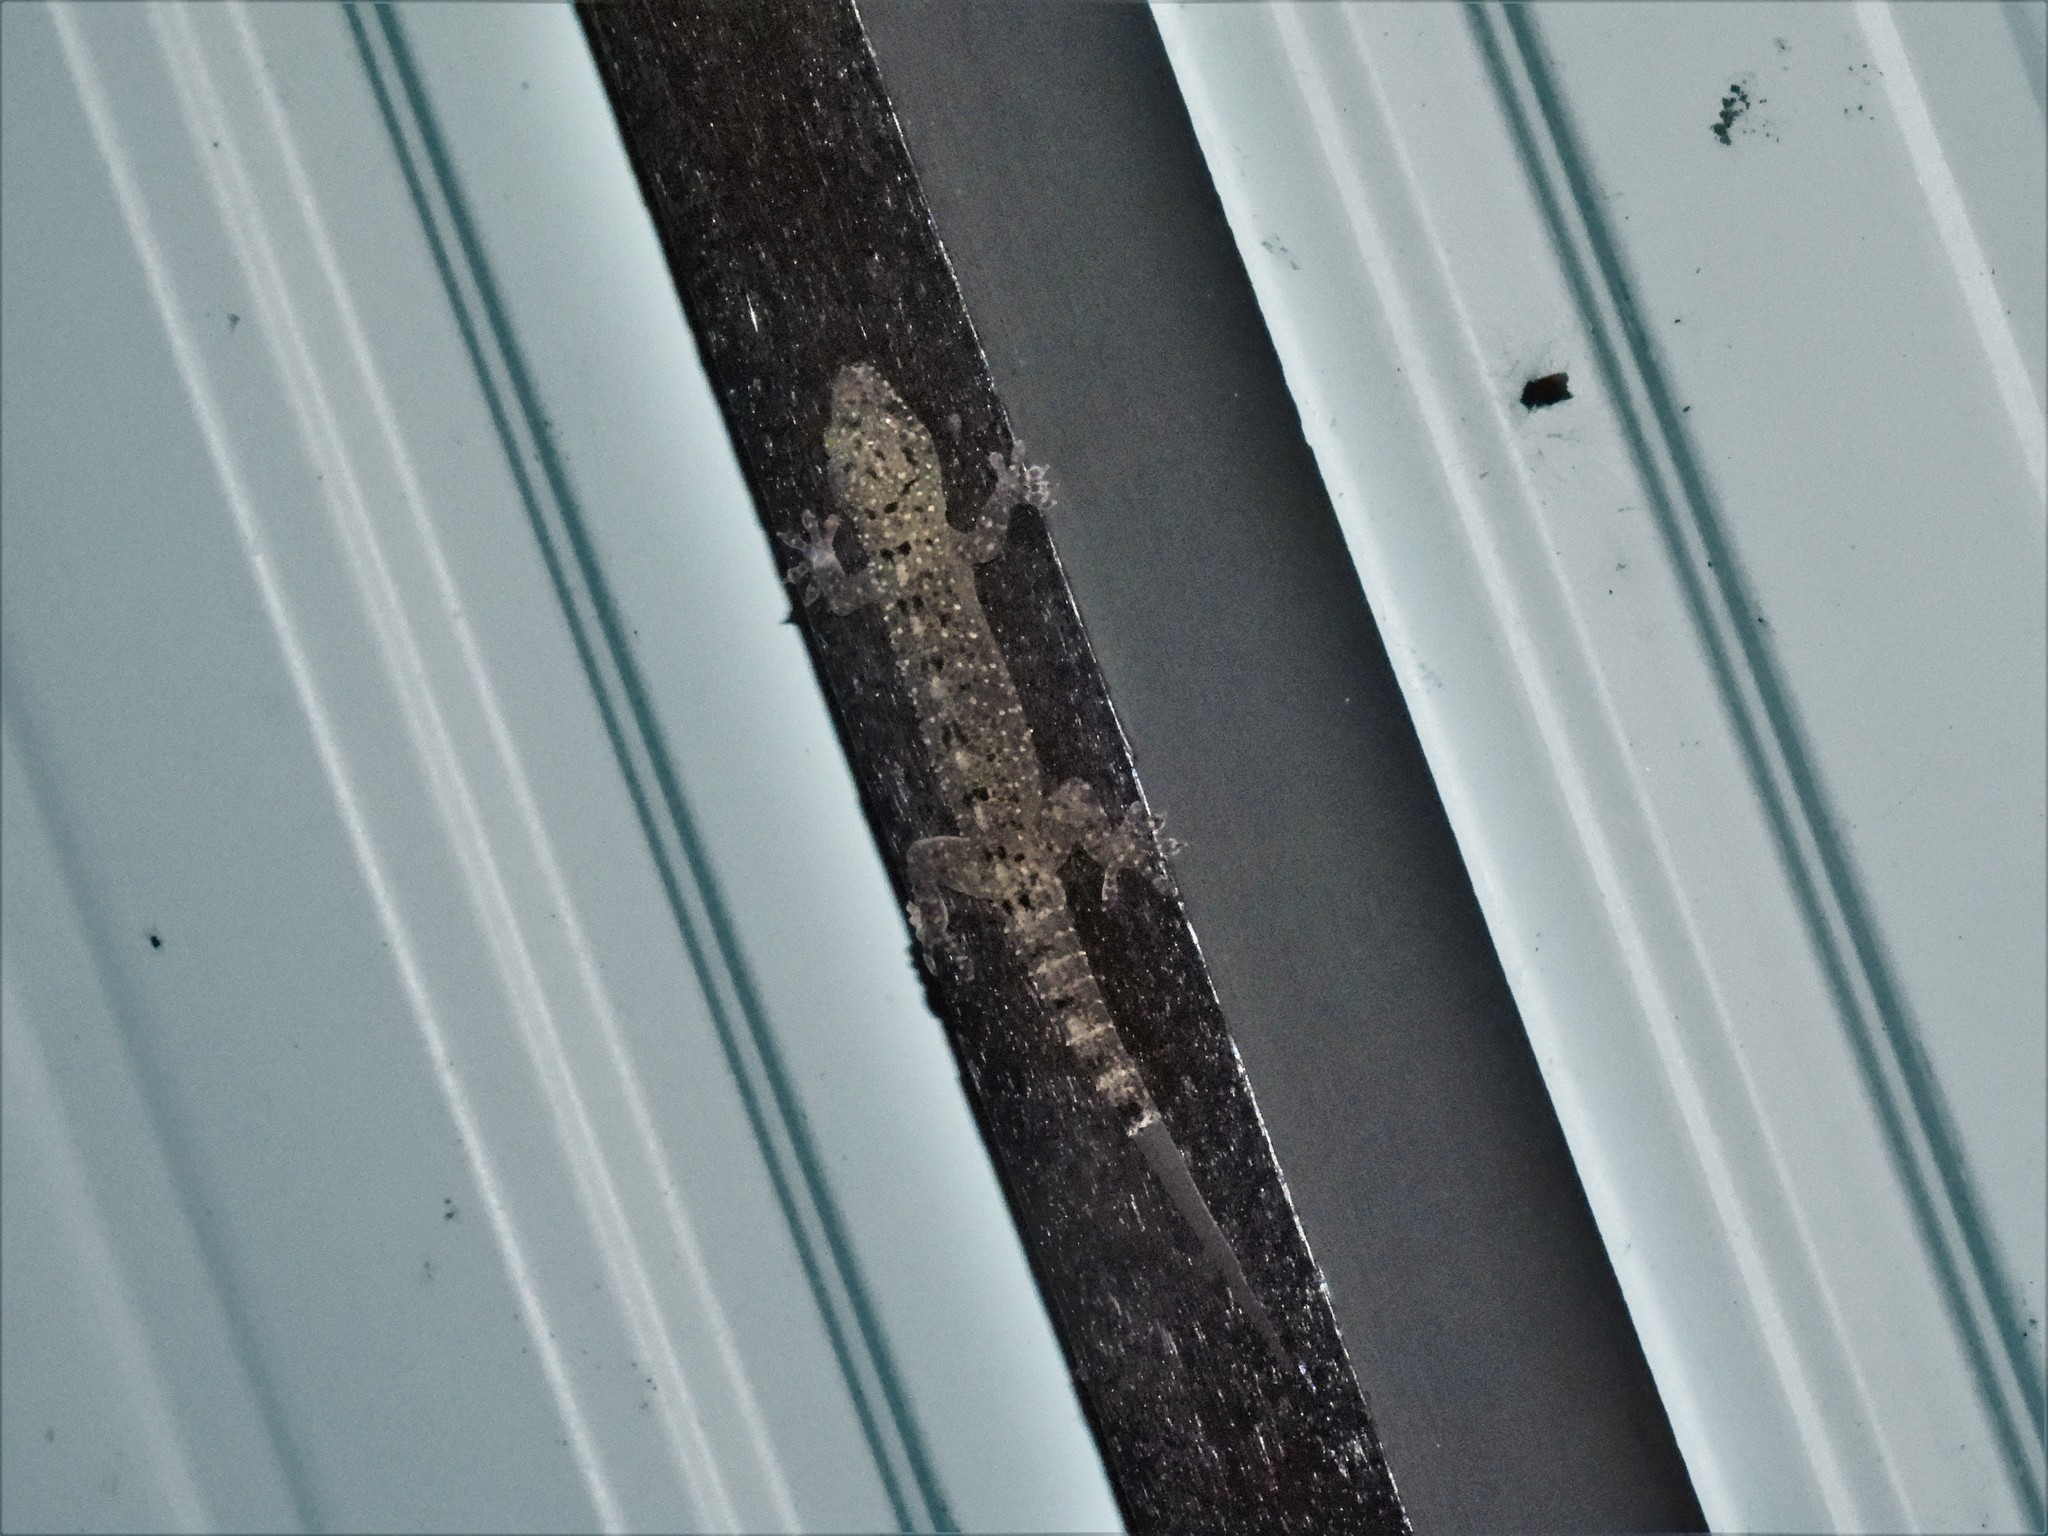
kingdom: Animalia
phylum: Chordata
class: Squamata
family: Gekkonidae
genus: Gekko
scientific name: Gekko monarchus
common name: Spotted house gecko
